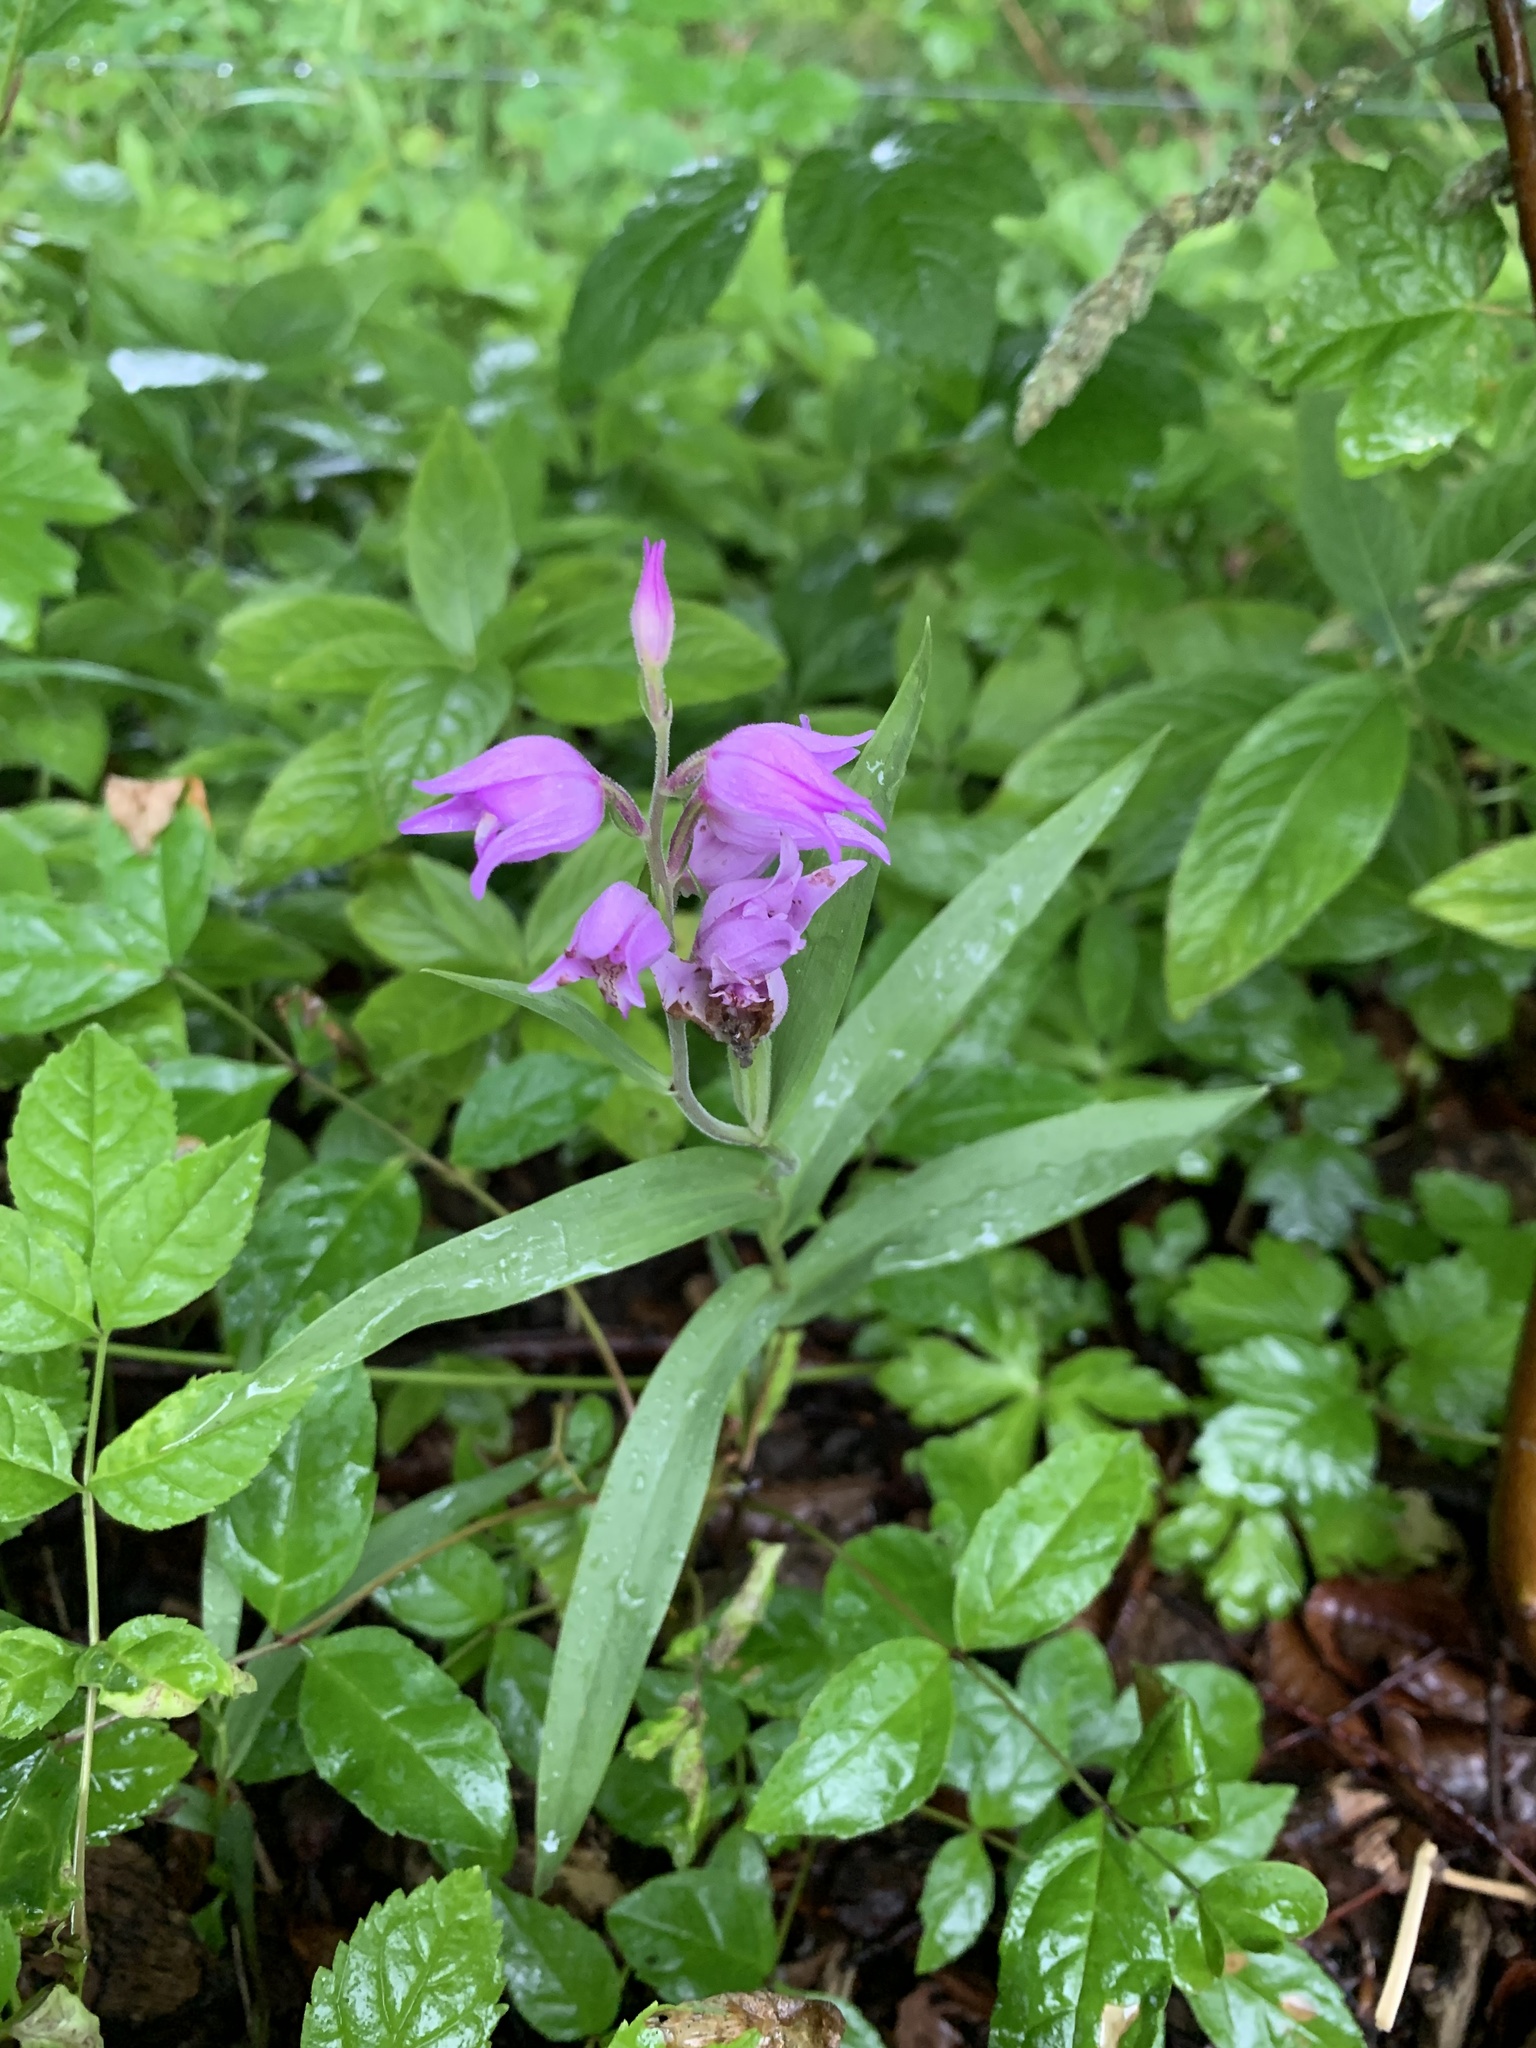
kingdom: Plantae
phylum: Tracheophyta
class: Liliopsida
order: Asparagales
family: Orchidaceae
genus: Cephalanthera
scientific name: Cephalanthera rubra
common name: Red helleborine
